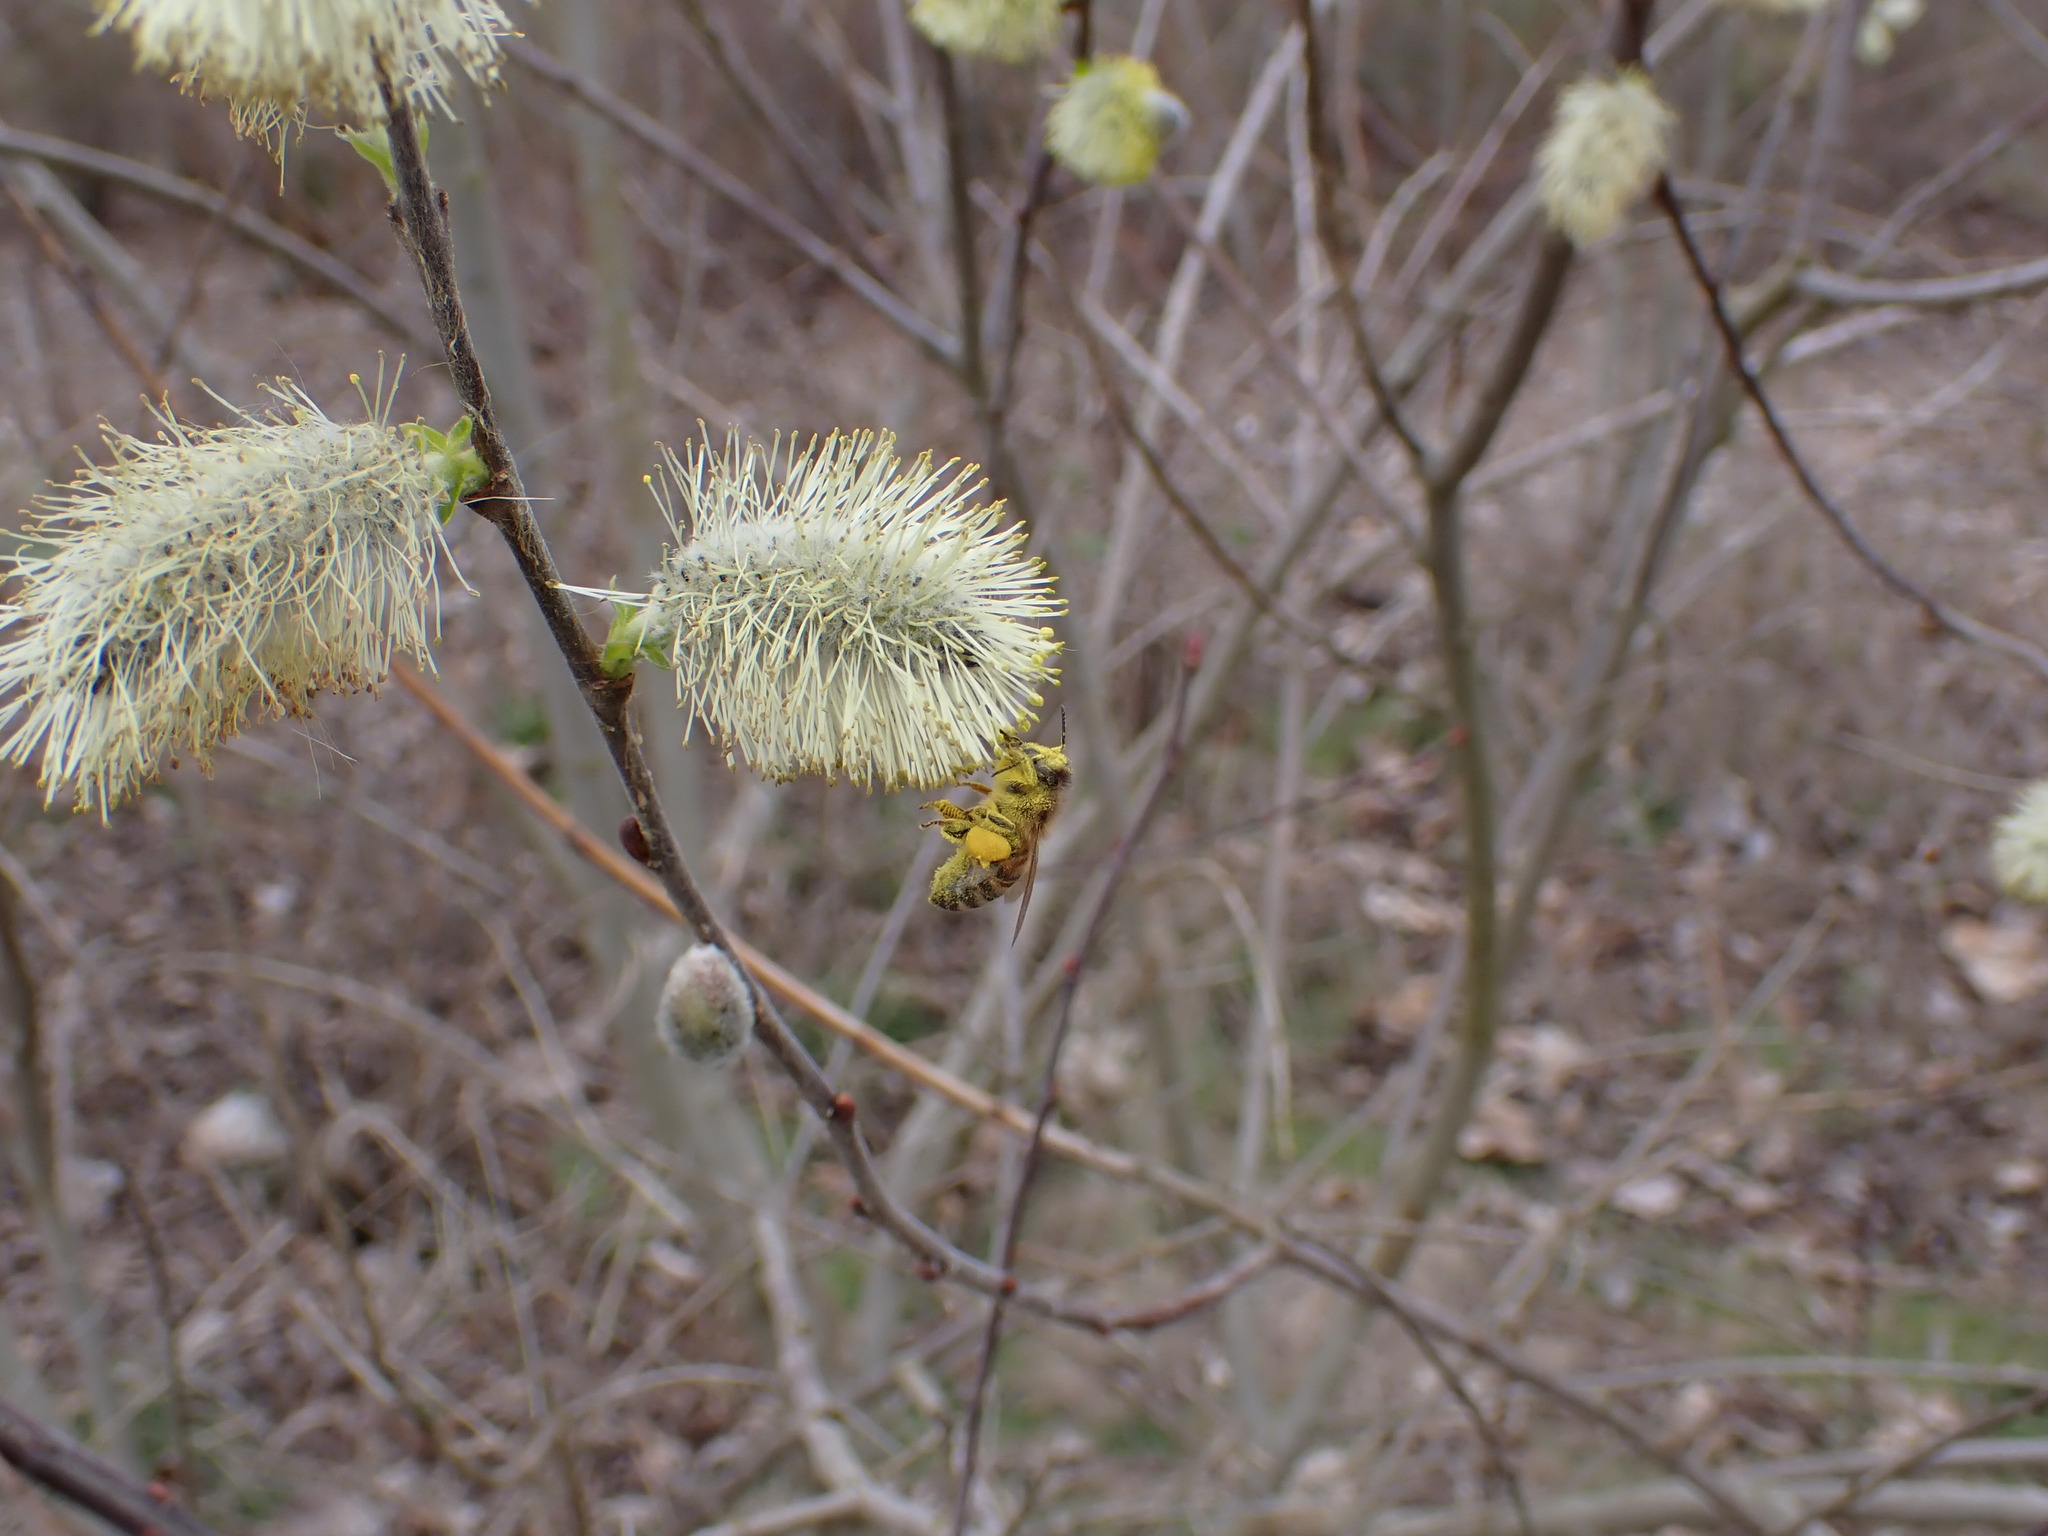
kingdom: Animalia
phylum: Arthropoda
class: Insecta
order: Hymenoptera
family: Apidae
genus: Apis
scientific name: Apis mellifera
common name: Honey bee
